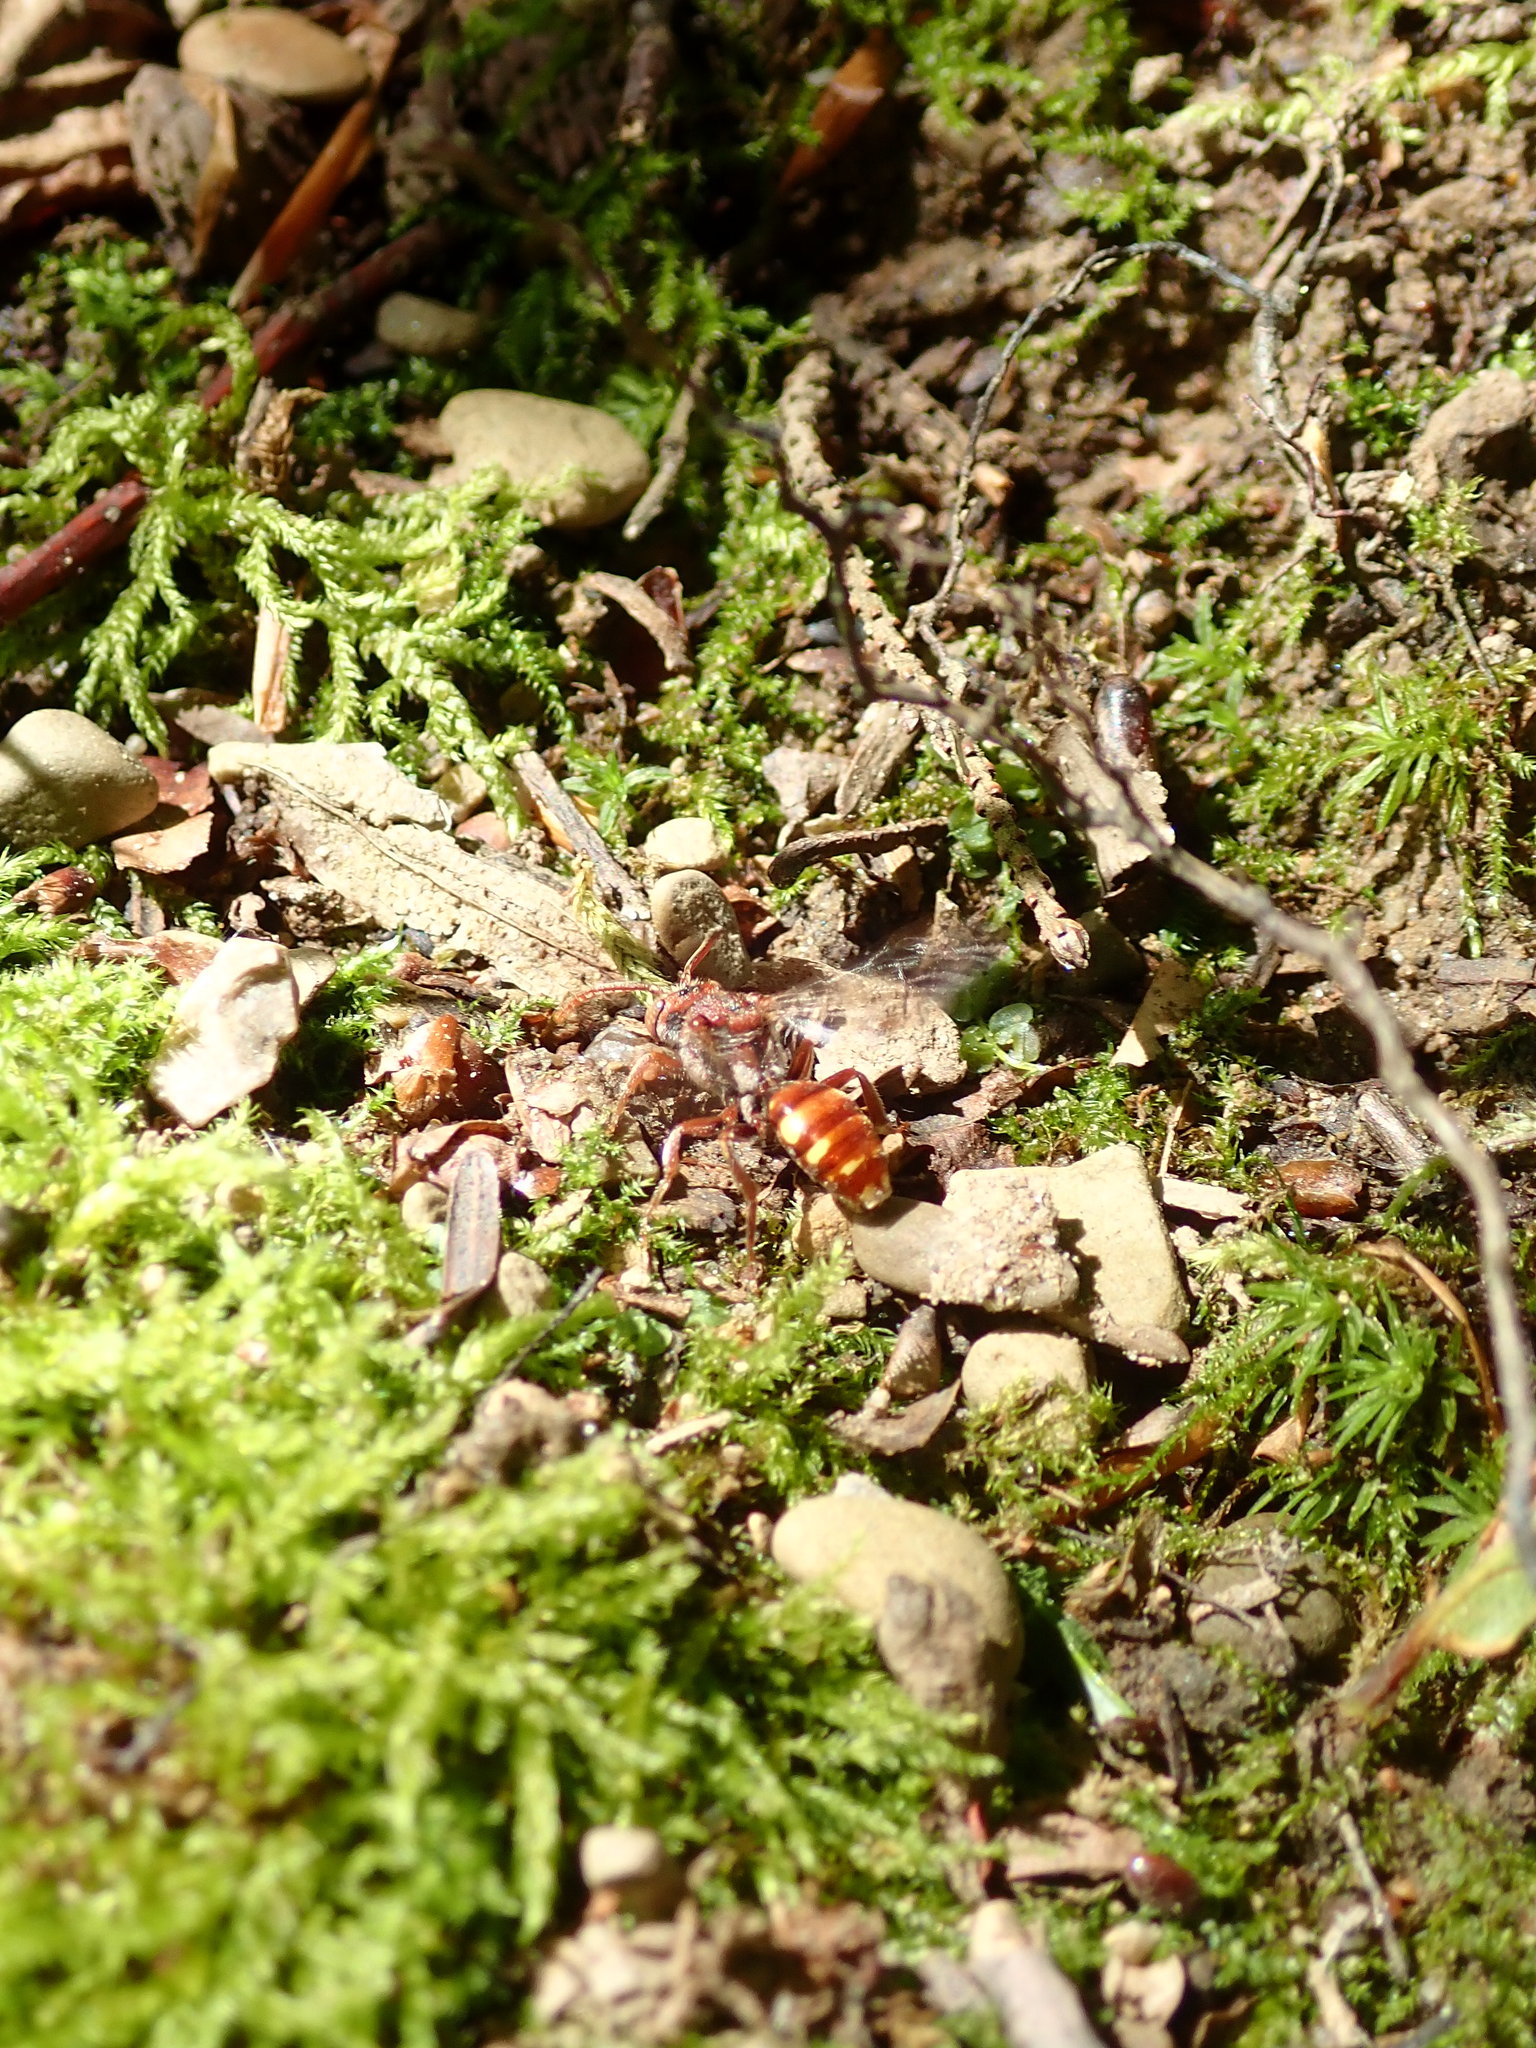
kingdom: Animalia
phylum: Arthropoda
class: Insecta
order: Hymenoptera
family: Apidae
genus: Nomada
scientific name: Nomada
